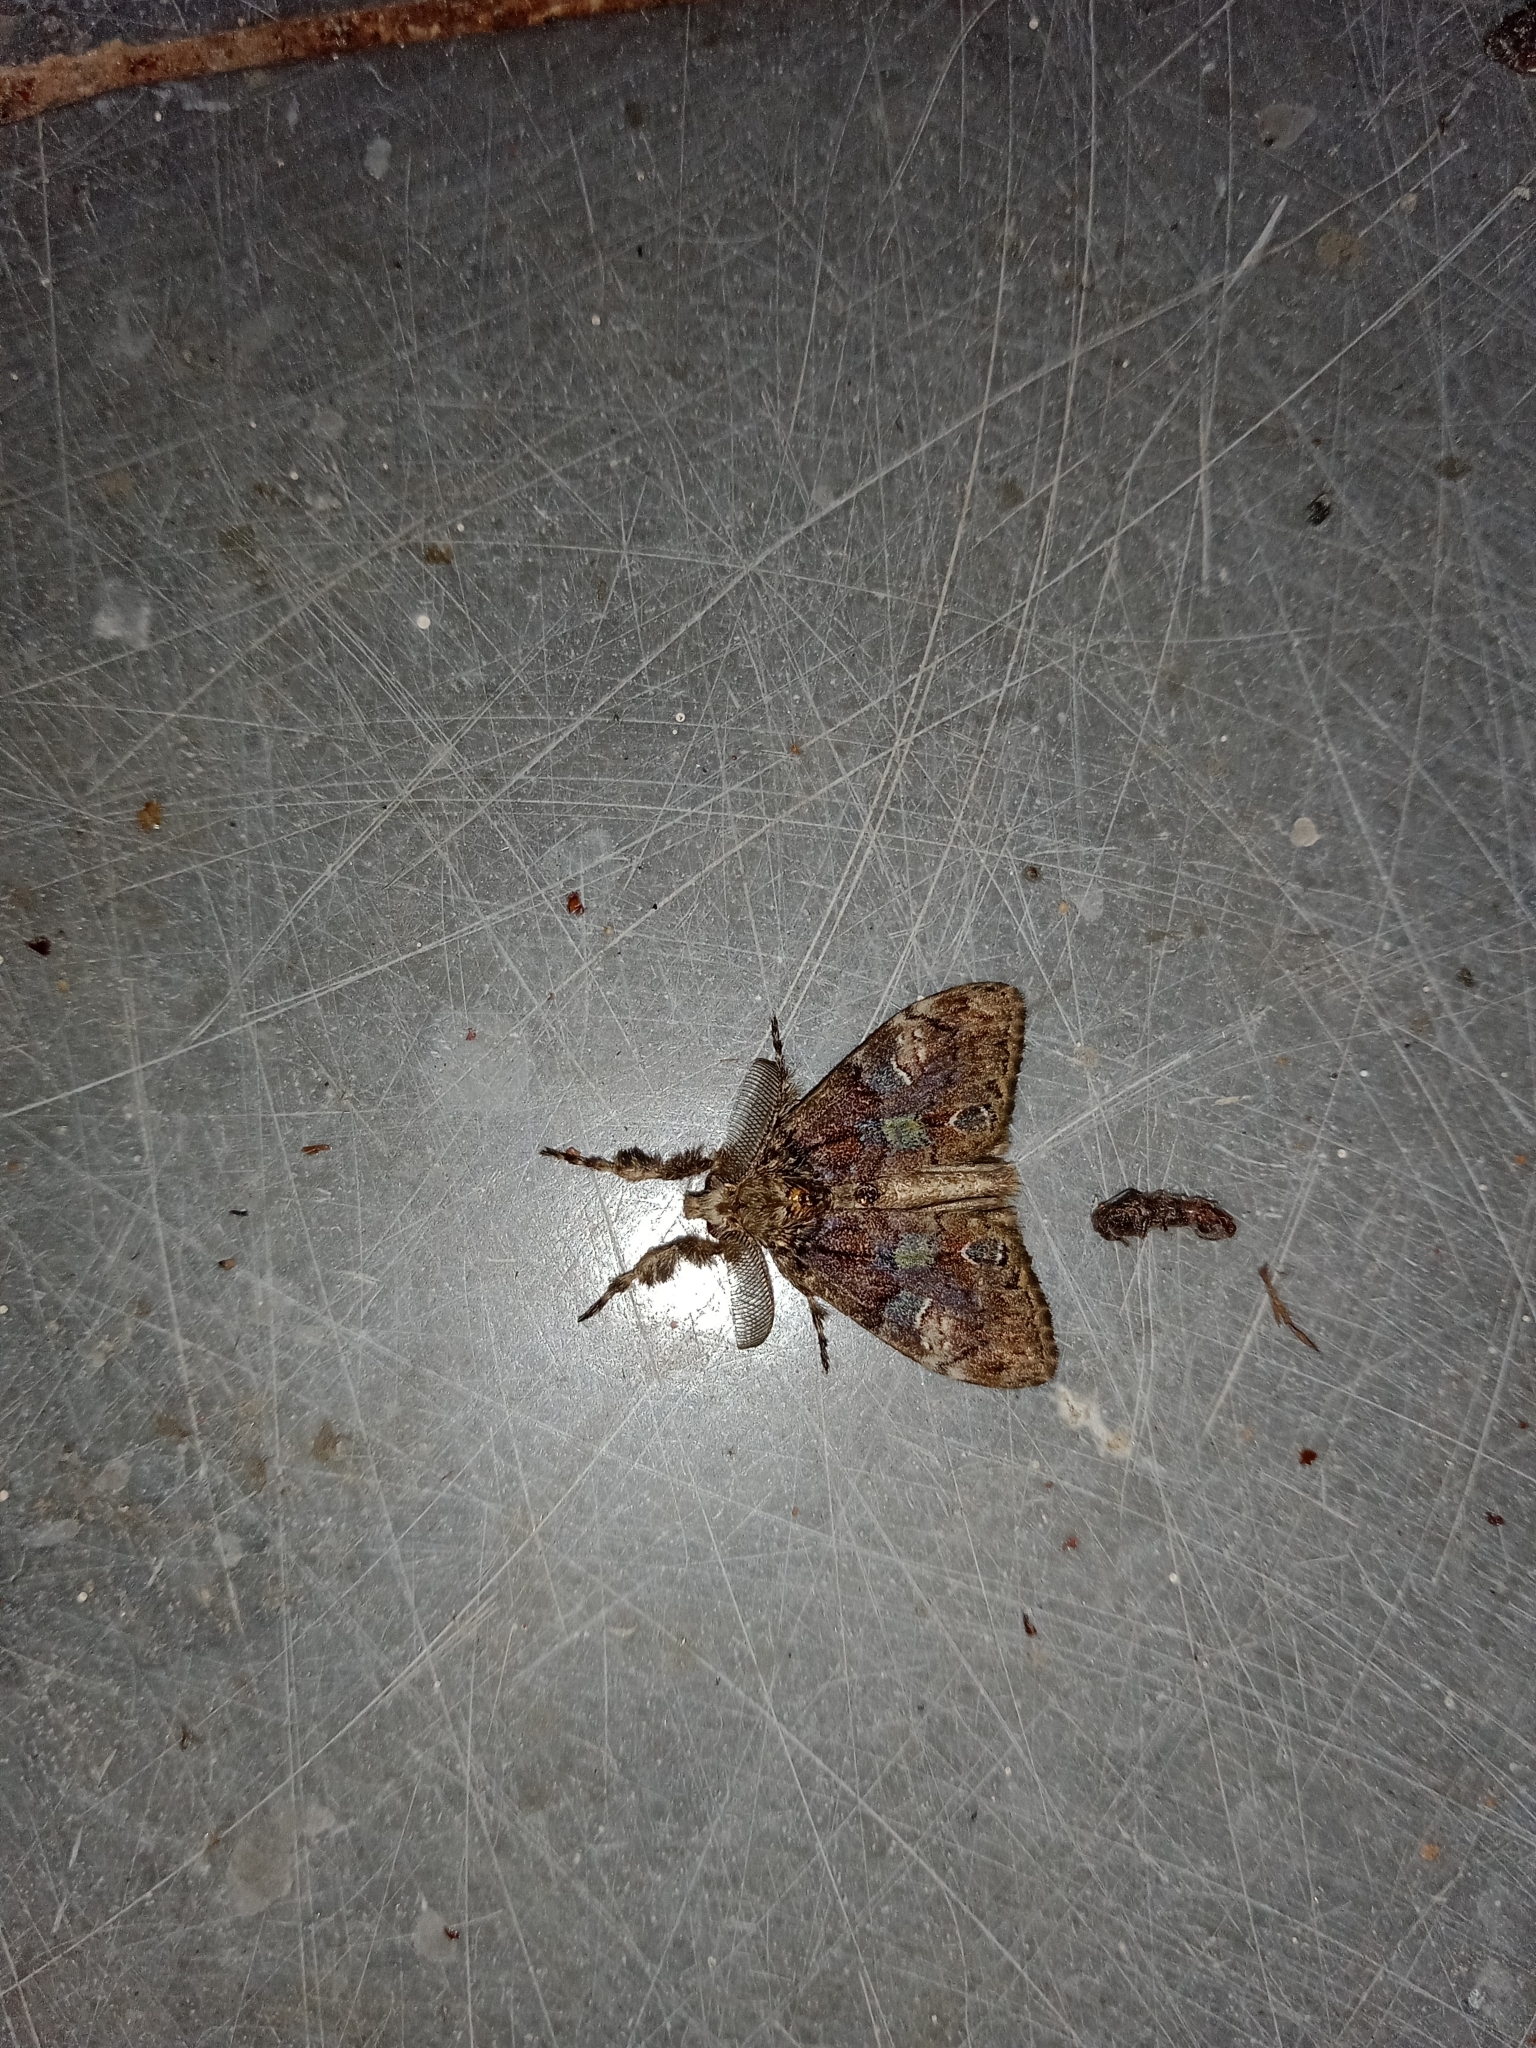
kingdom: Animalia
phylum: Arthropoda
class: Insecta
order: Lepidoptera
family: Erebidae
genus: Orgyia
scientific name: Orgyia postica
